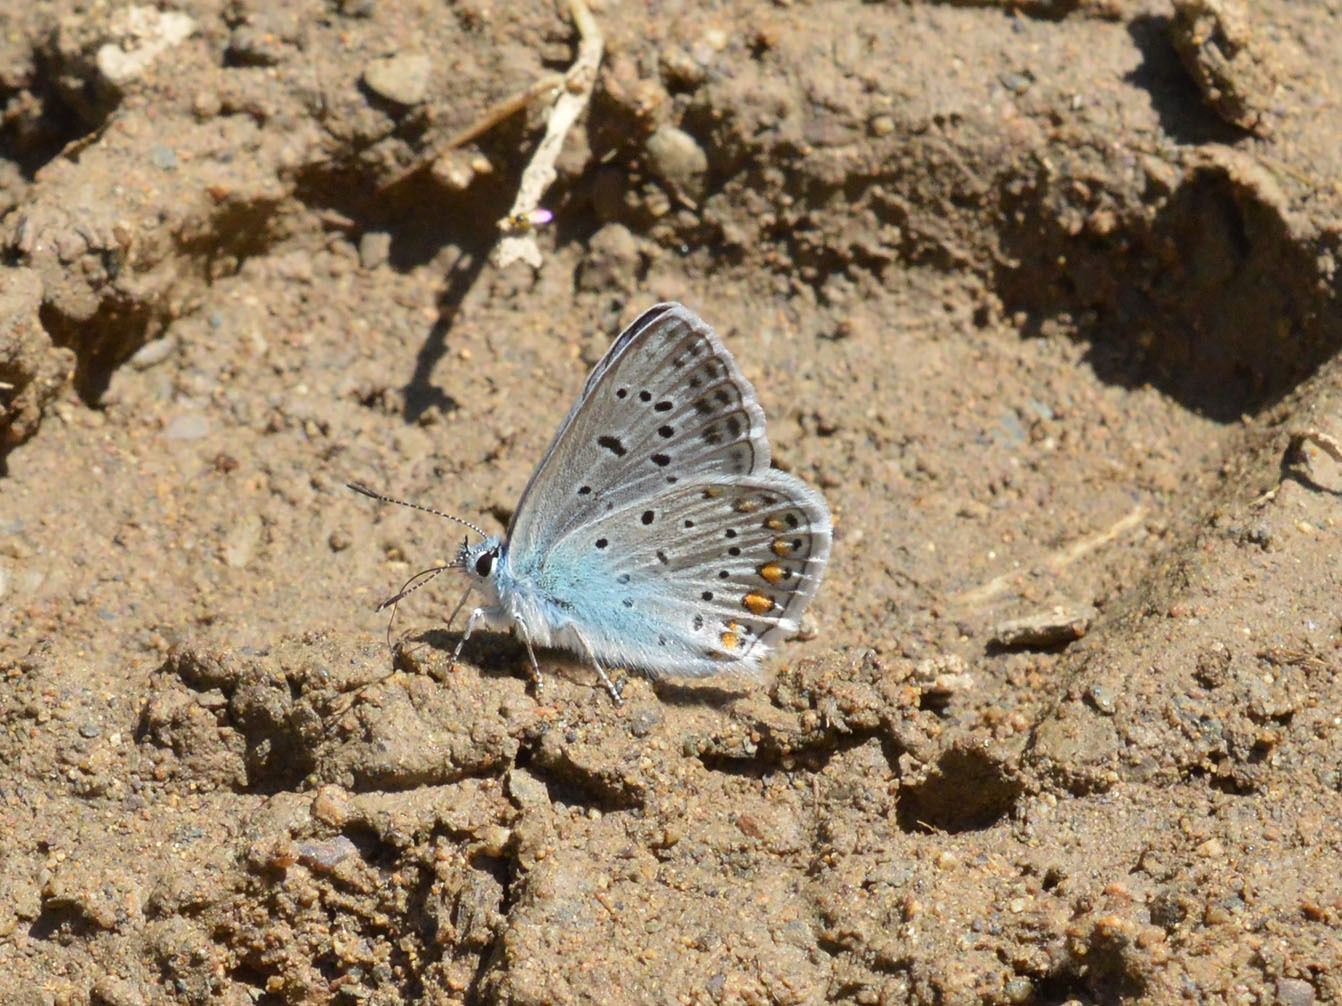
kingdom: Animalia
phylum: Arthropoda
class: Insecta
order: Lepidoptera
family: Lycaenidae
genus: Polyommatus
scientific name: Polyommatus icarus
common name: Common blue
